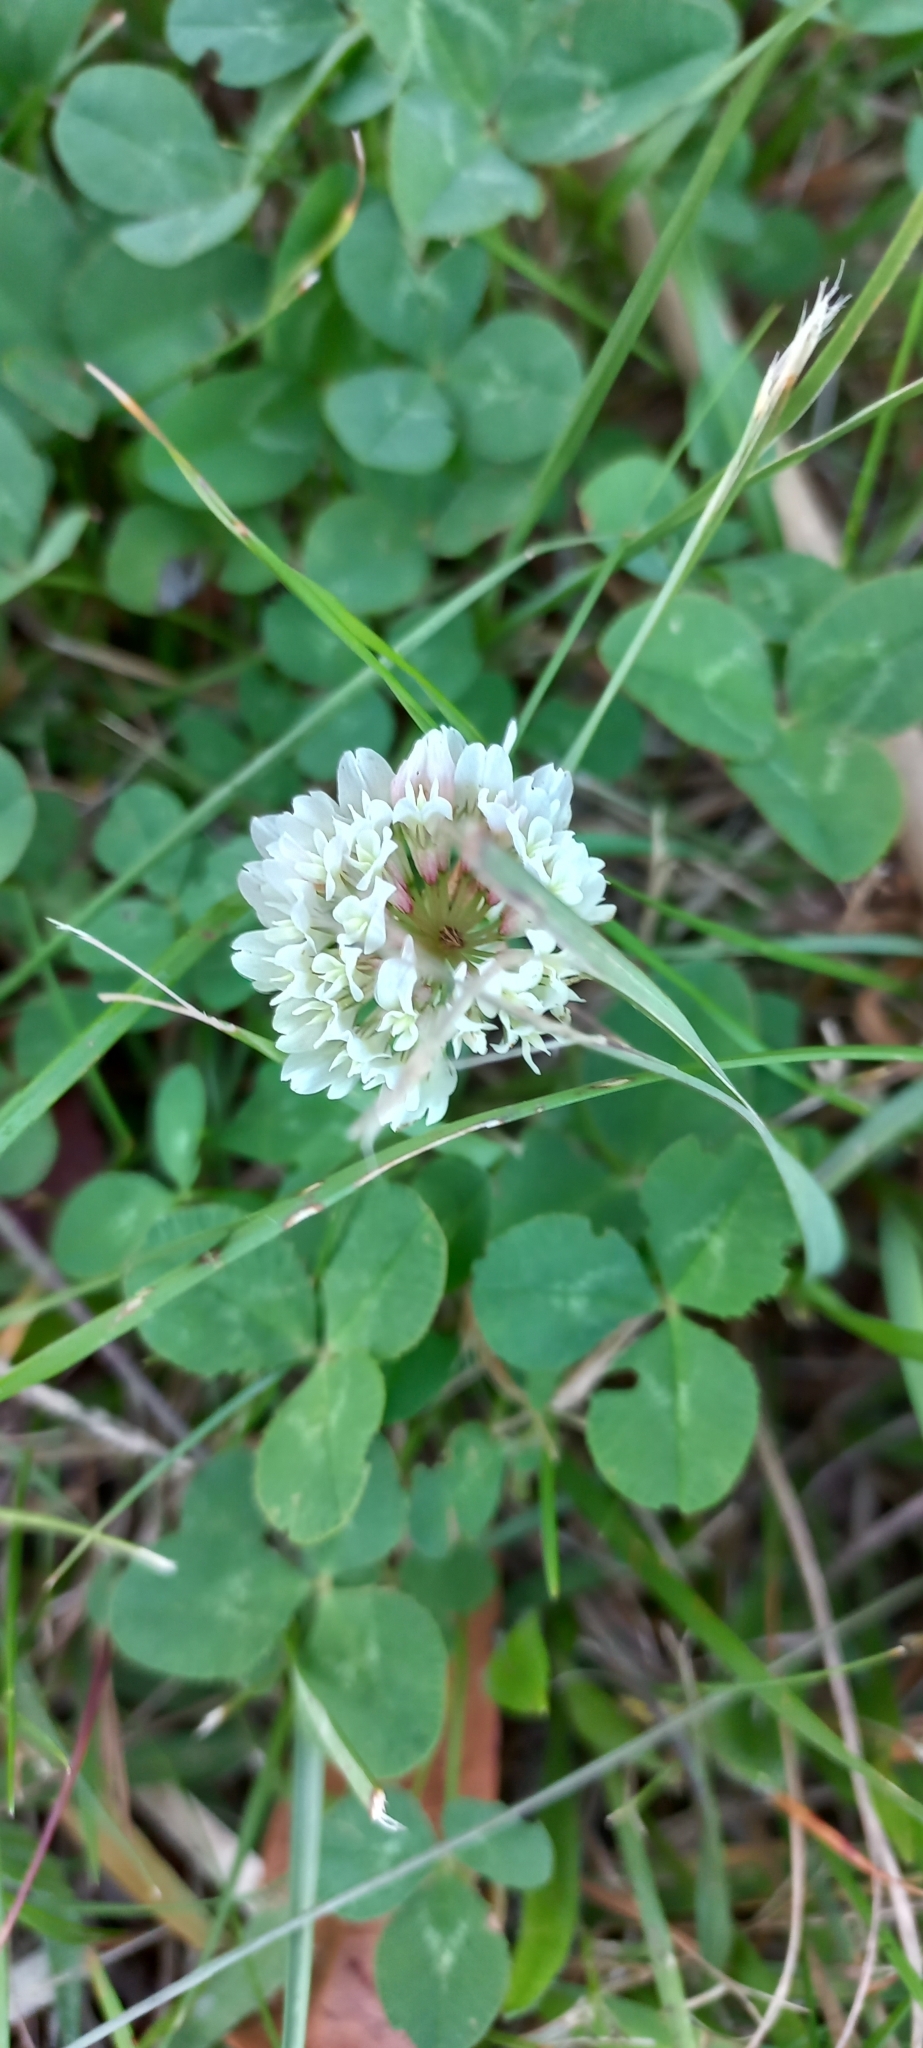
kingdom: Plantae
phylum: Tracheophyta
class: Magnoliopsida
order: Fabales
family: Fabaceae
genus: Trifolium
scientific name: Trifolium repens
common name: White clover
